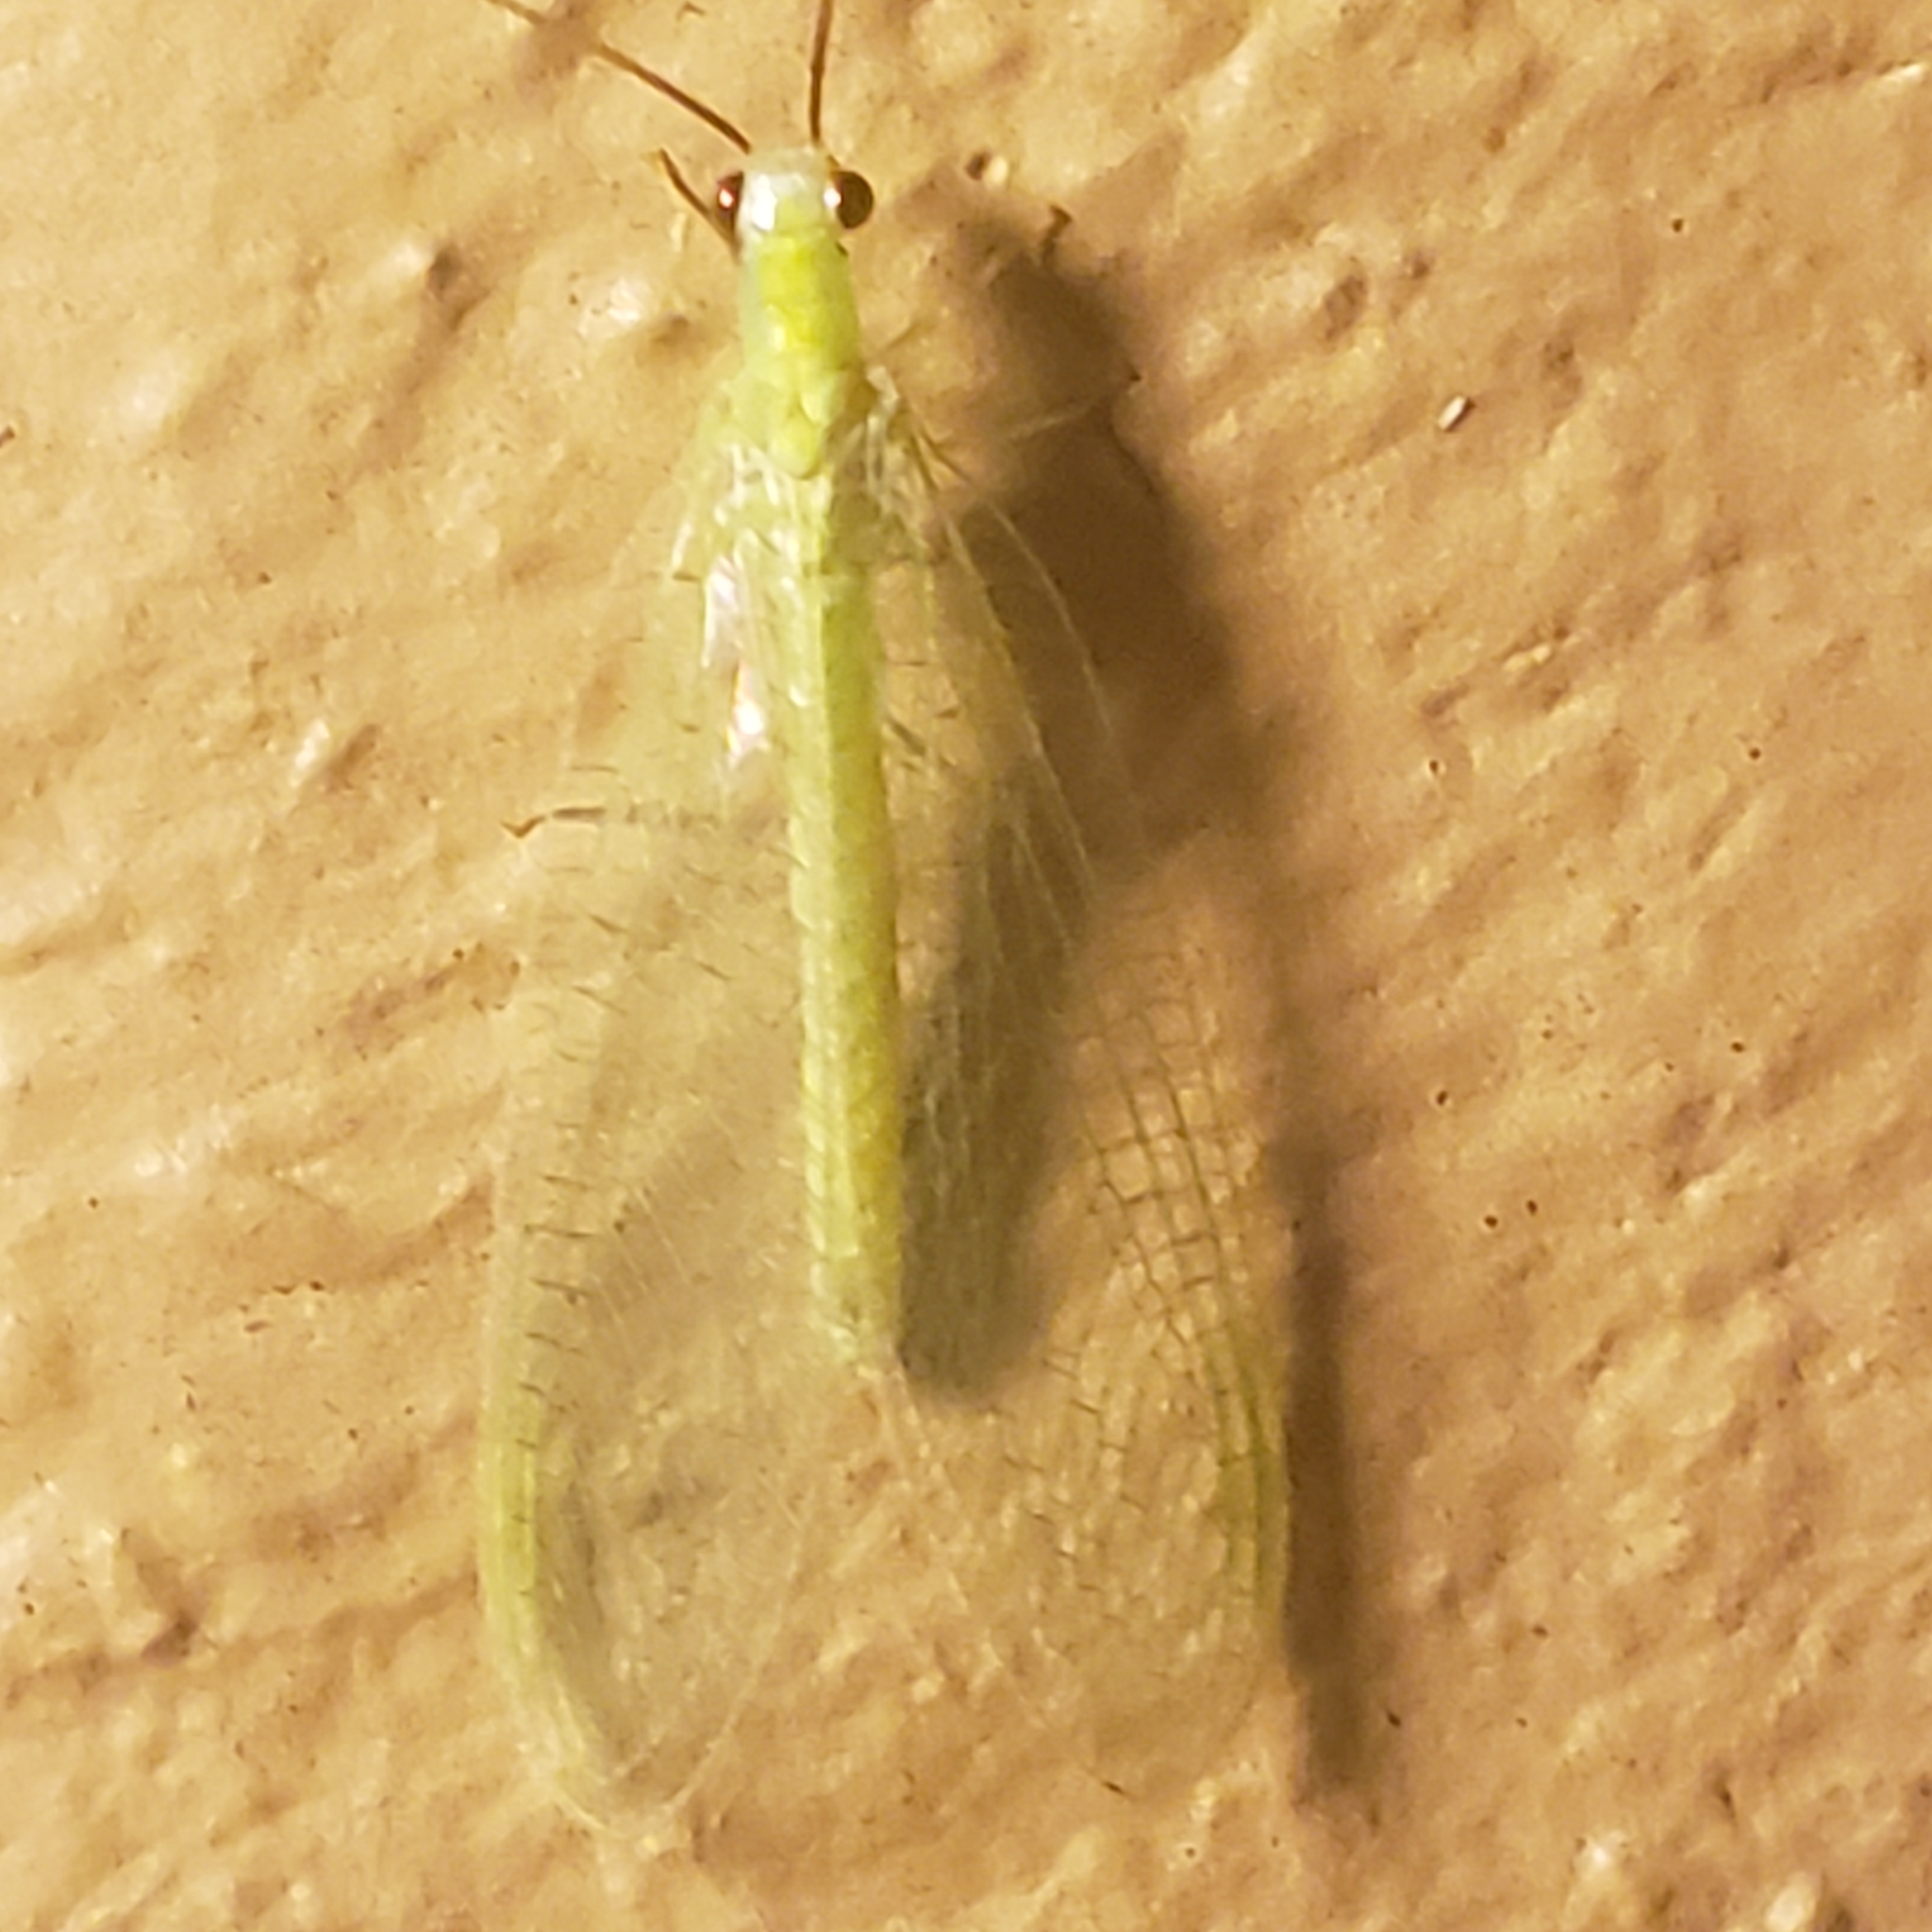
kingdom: Animalia
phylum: Arthropoda
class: Insecta
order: Neuroptera
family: Chrysopidae
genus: Chrysopa
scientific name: Chrysopa nigricornis
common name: Black-horned green lacewing
